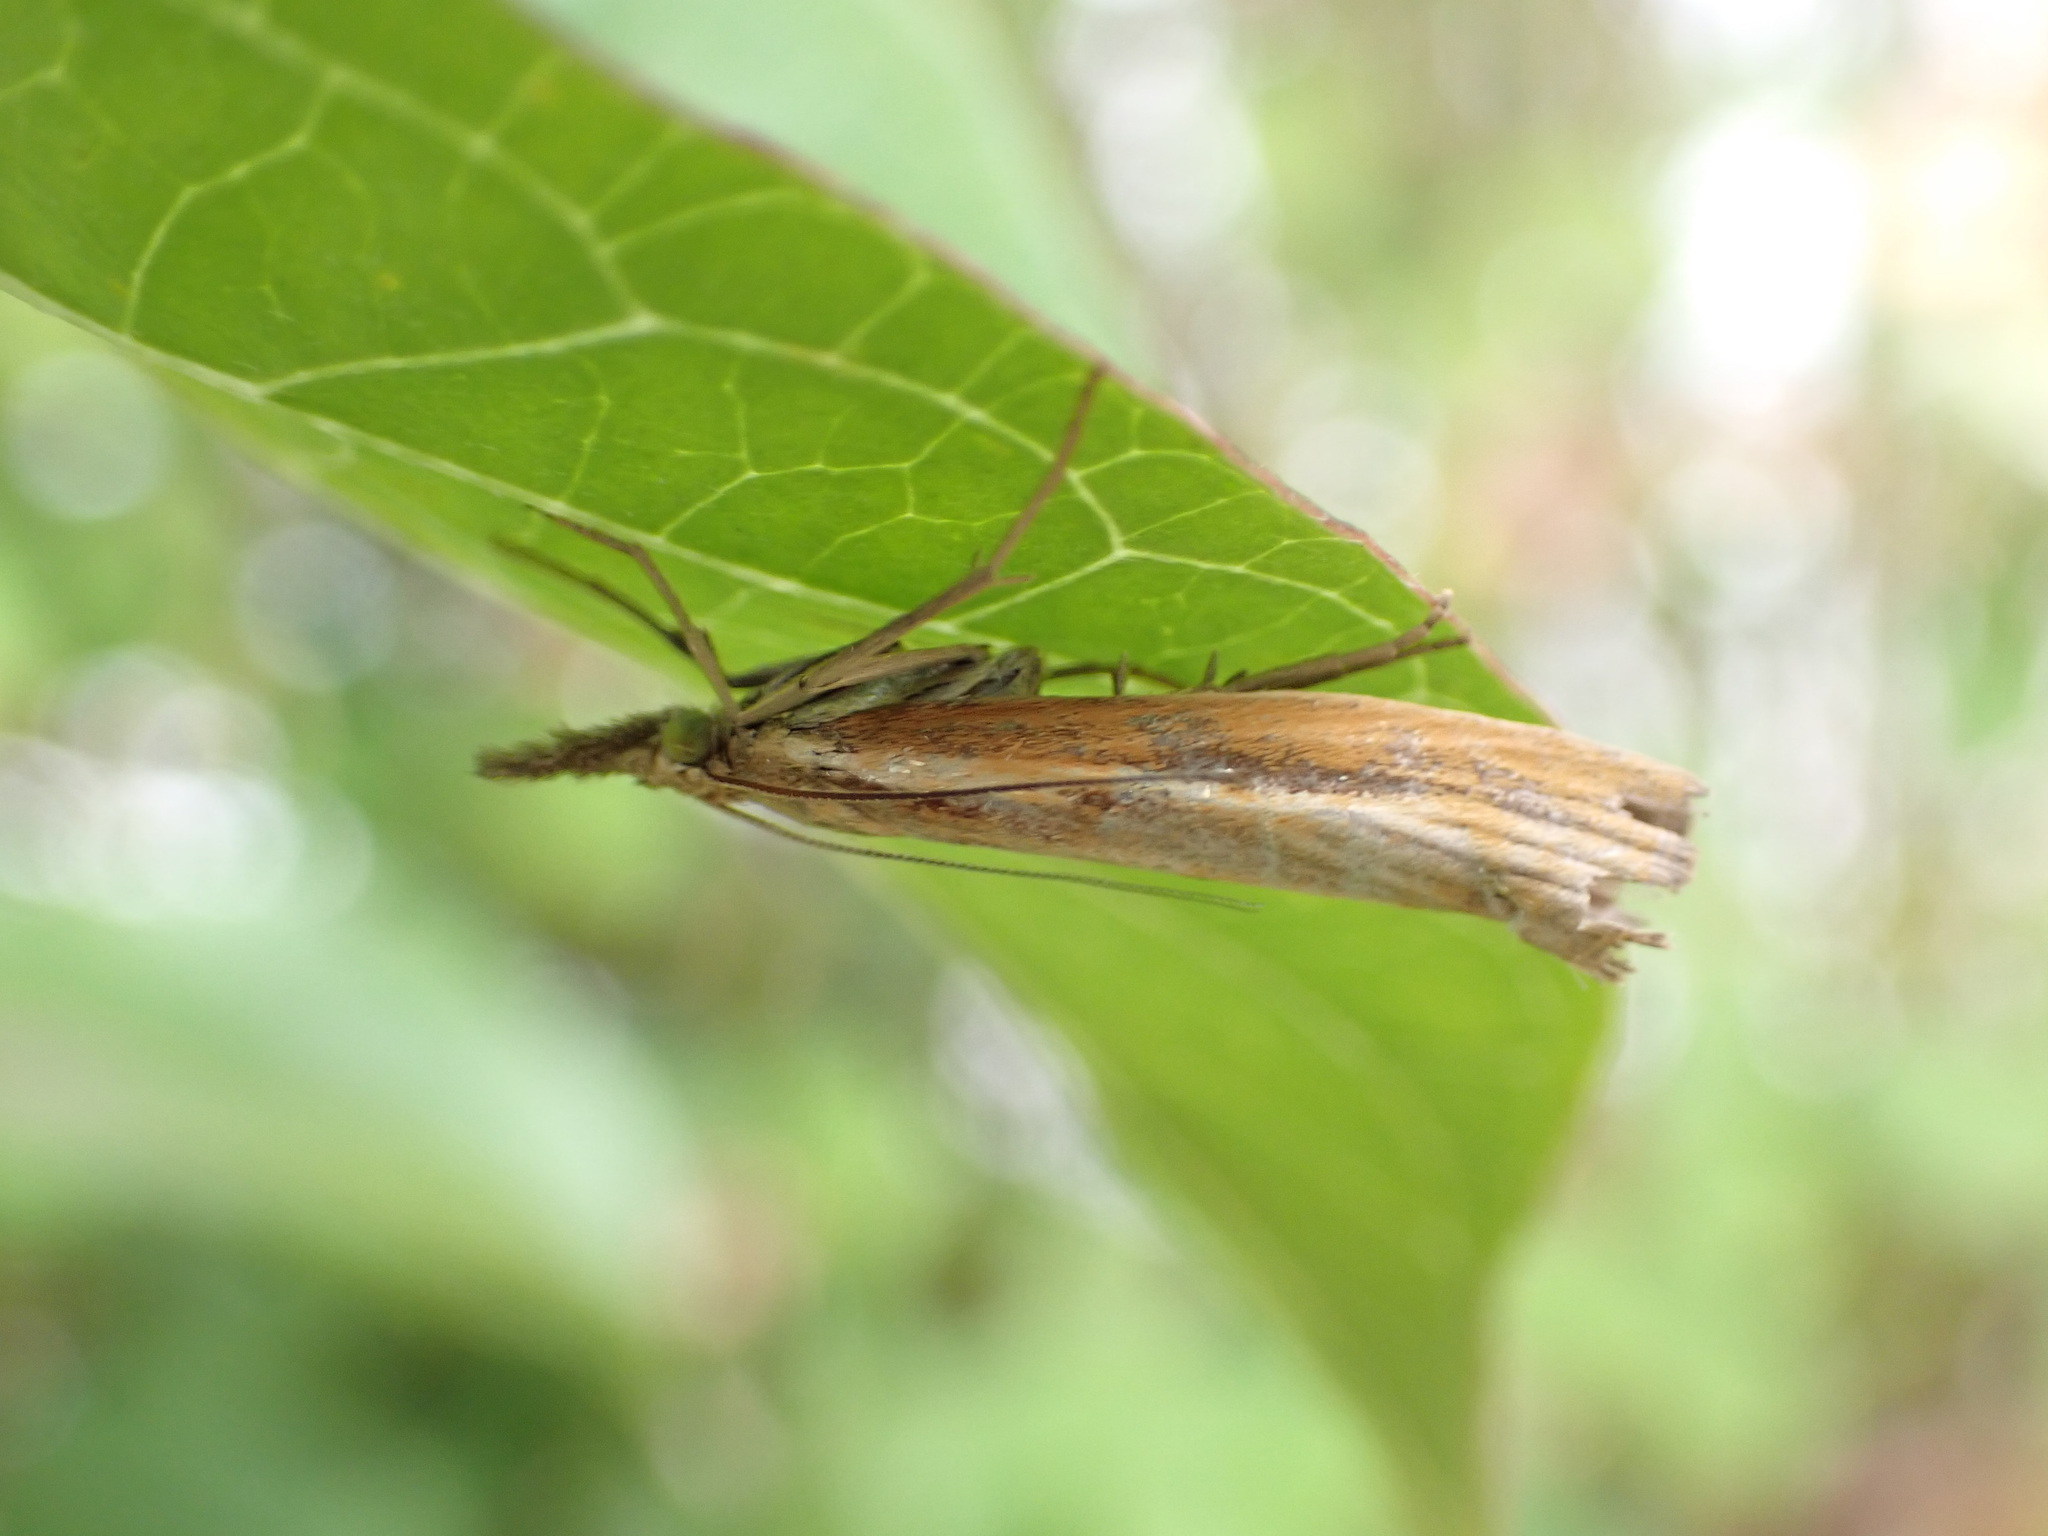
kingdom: Animalia
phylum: Arthropoda
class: Insecta
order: Lepidoptera
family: Crambidae
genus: Agriphila
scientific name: Agriphila tristellus
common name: Common grass-veneer
